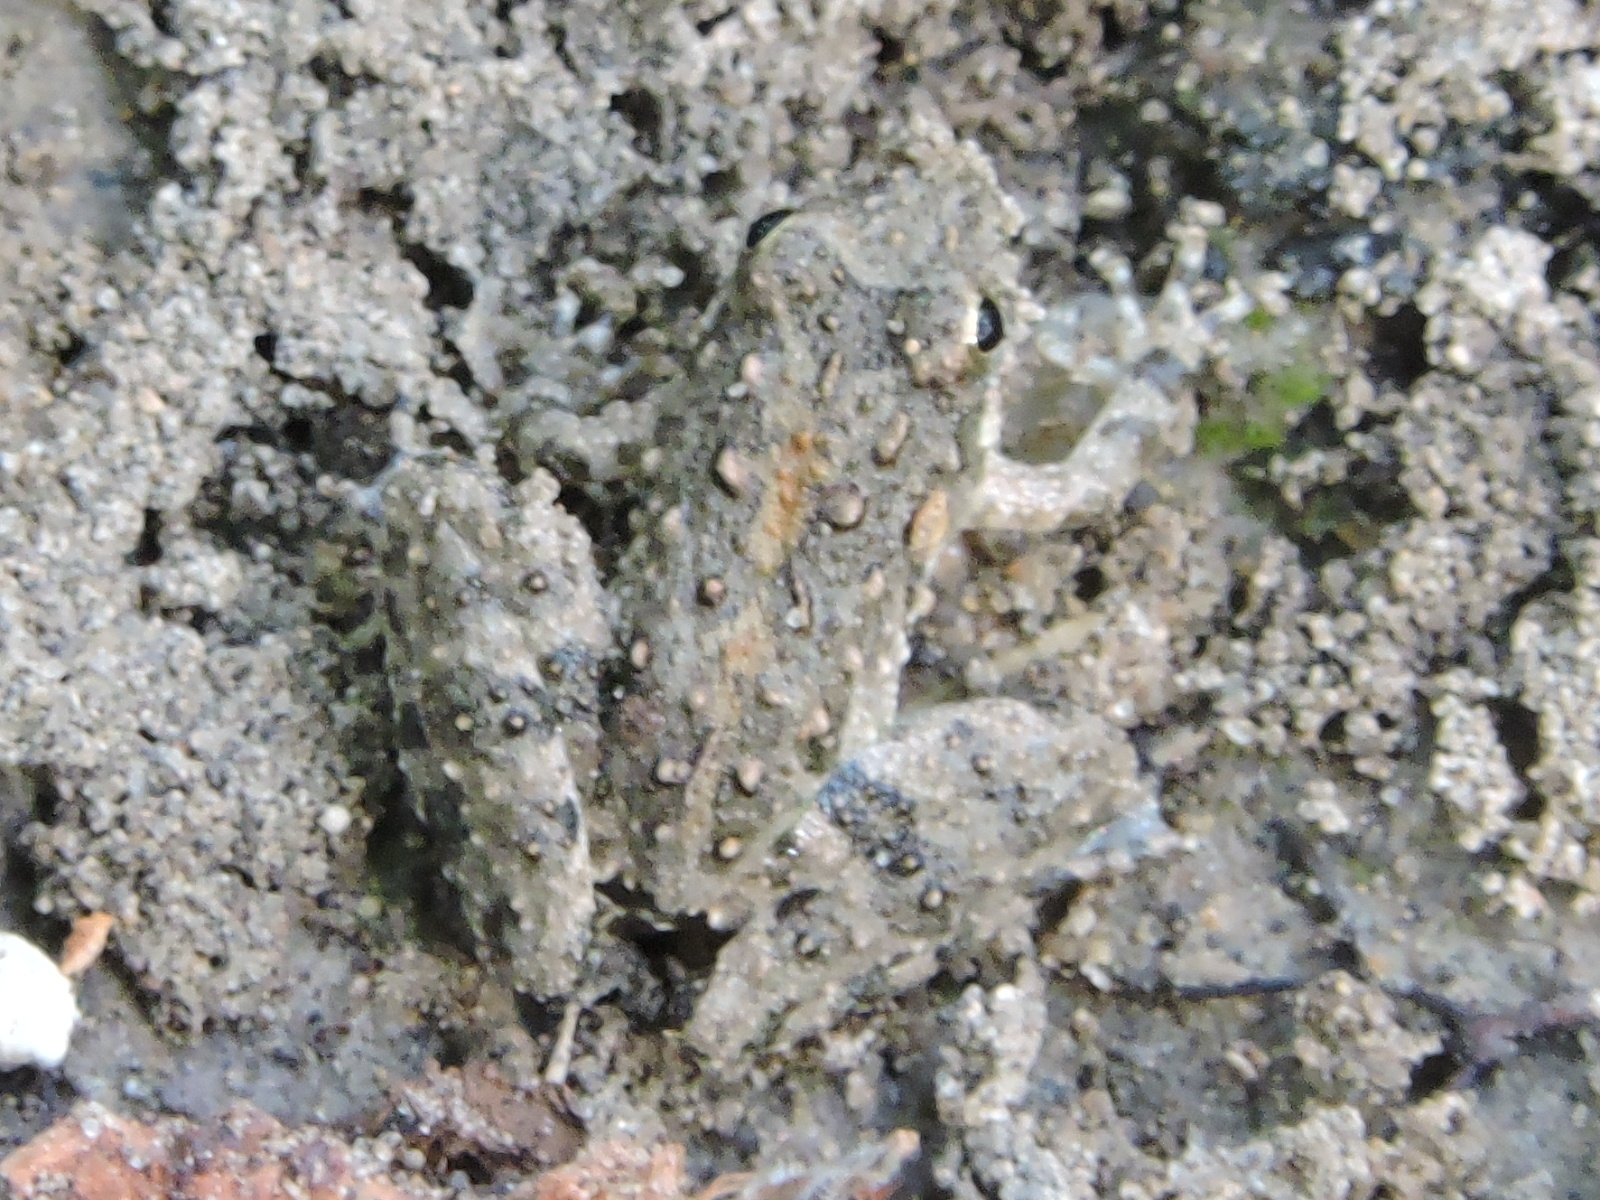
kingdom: Animalia
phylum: Chordata
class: Amphibia
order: Anura
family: Hylidae
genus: Acris
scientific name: Acris blanchardi
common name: Blanchard's cricket frog
